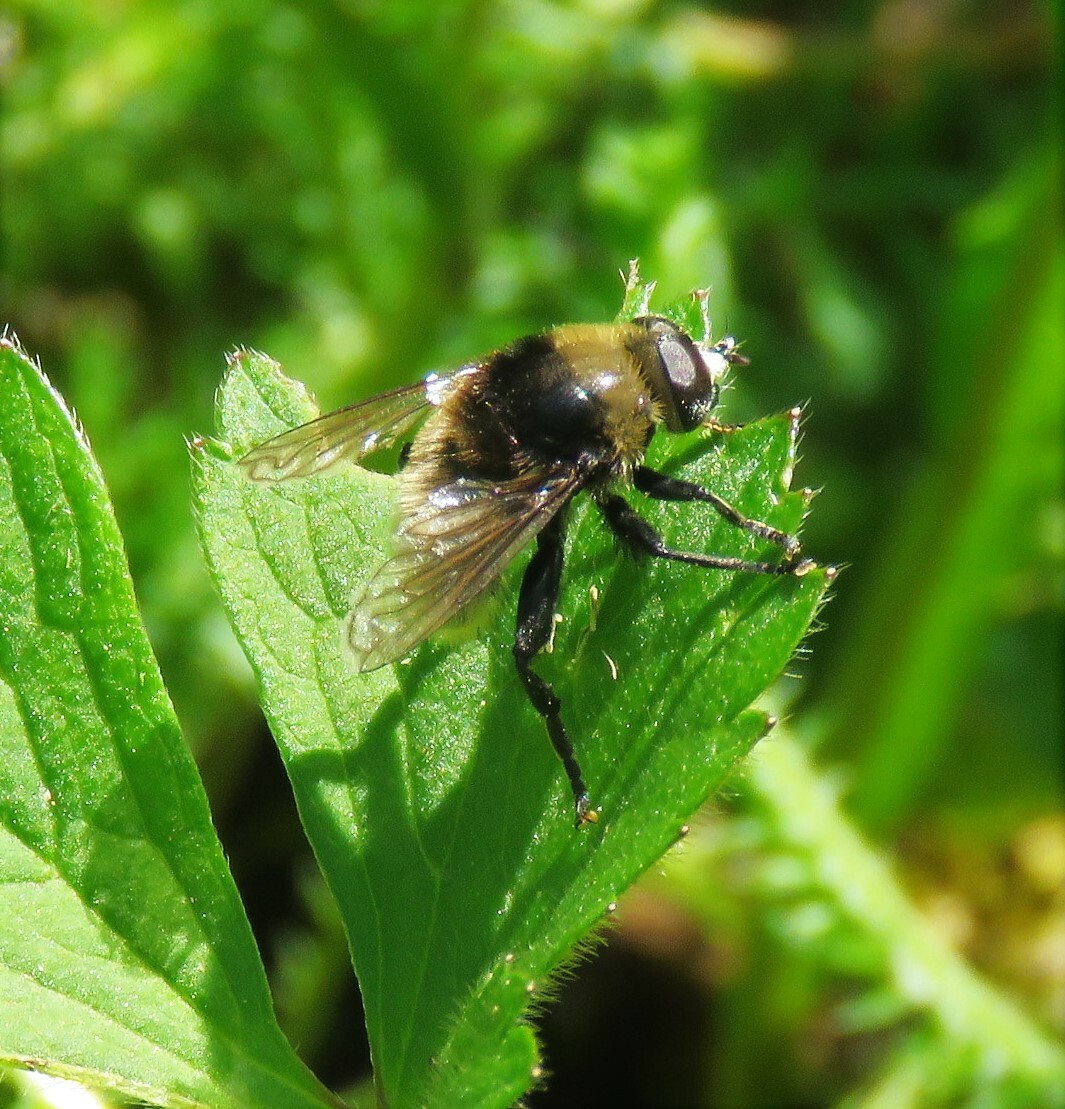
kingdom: Animalia
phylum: Arthropoda
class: Insecta
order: Diptera
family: Syrphidae
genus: Merodon
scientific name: Merodon equestris
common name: Greater bulb-fly
